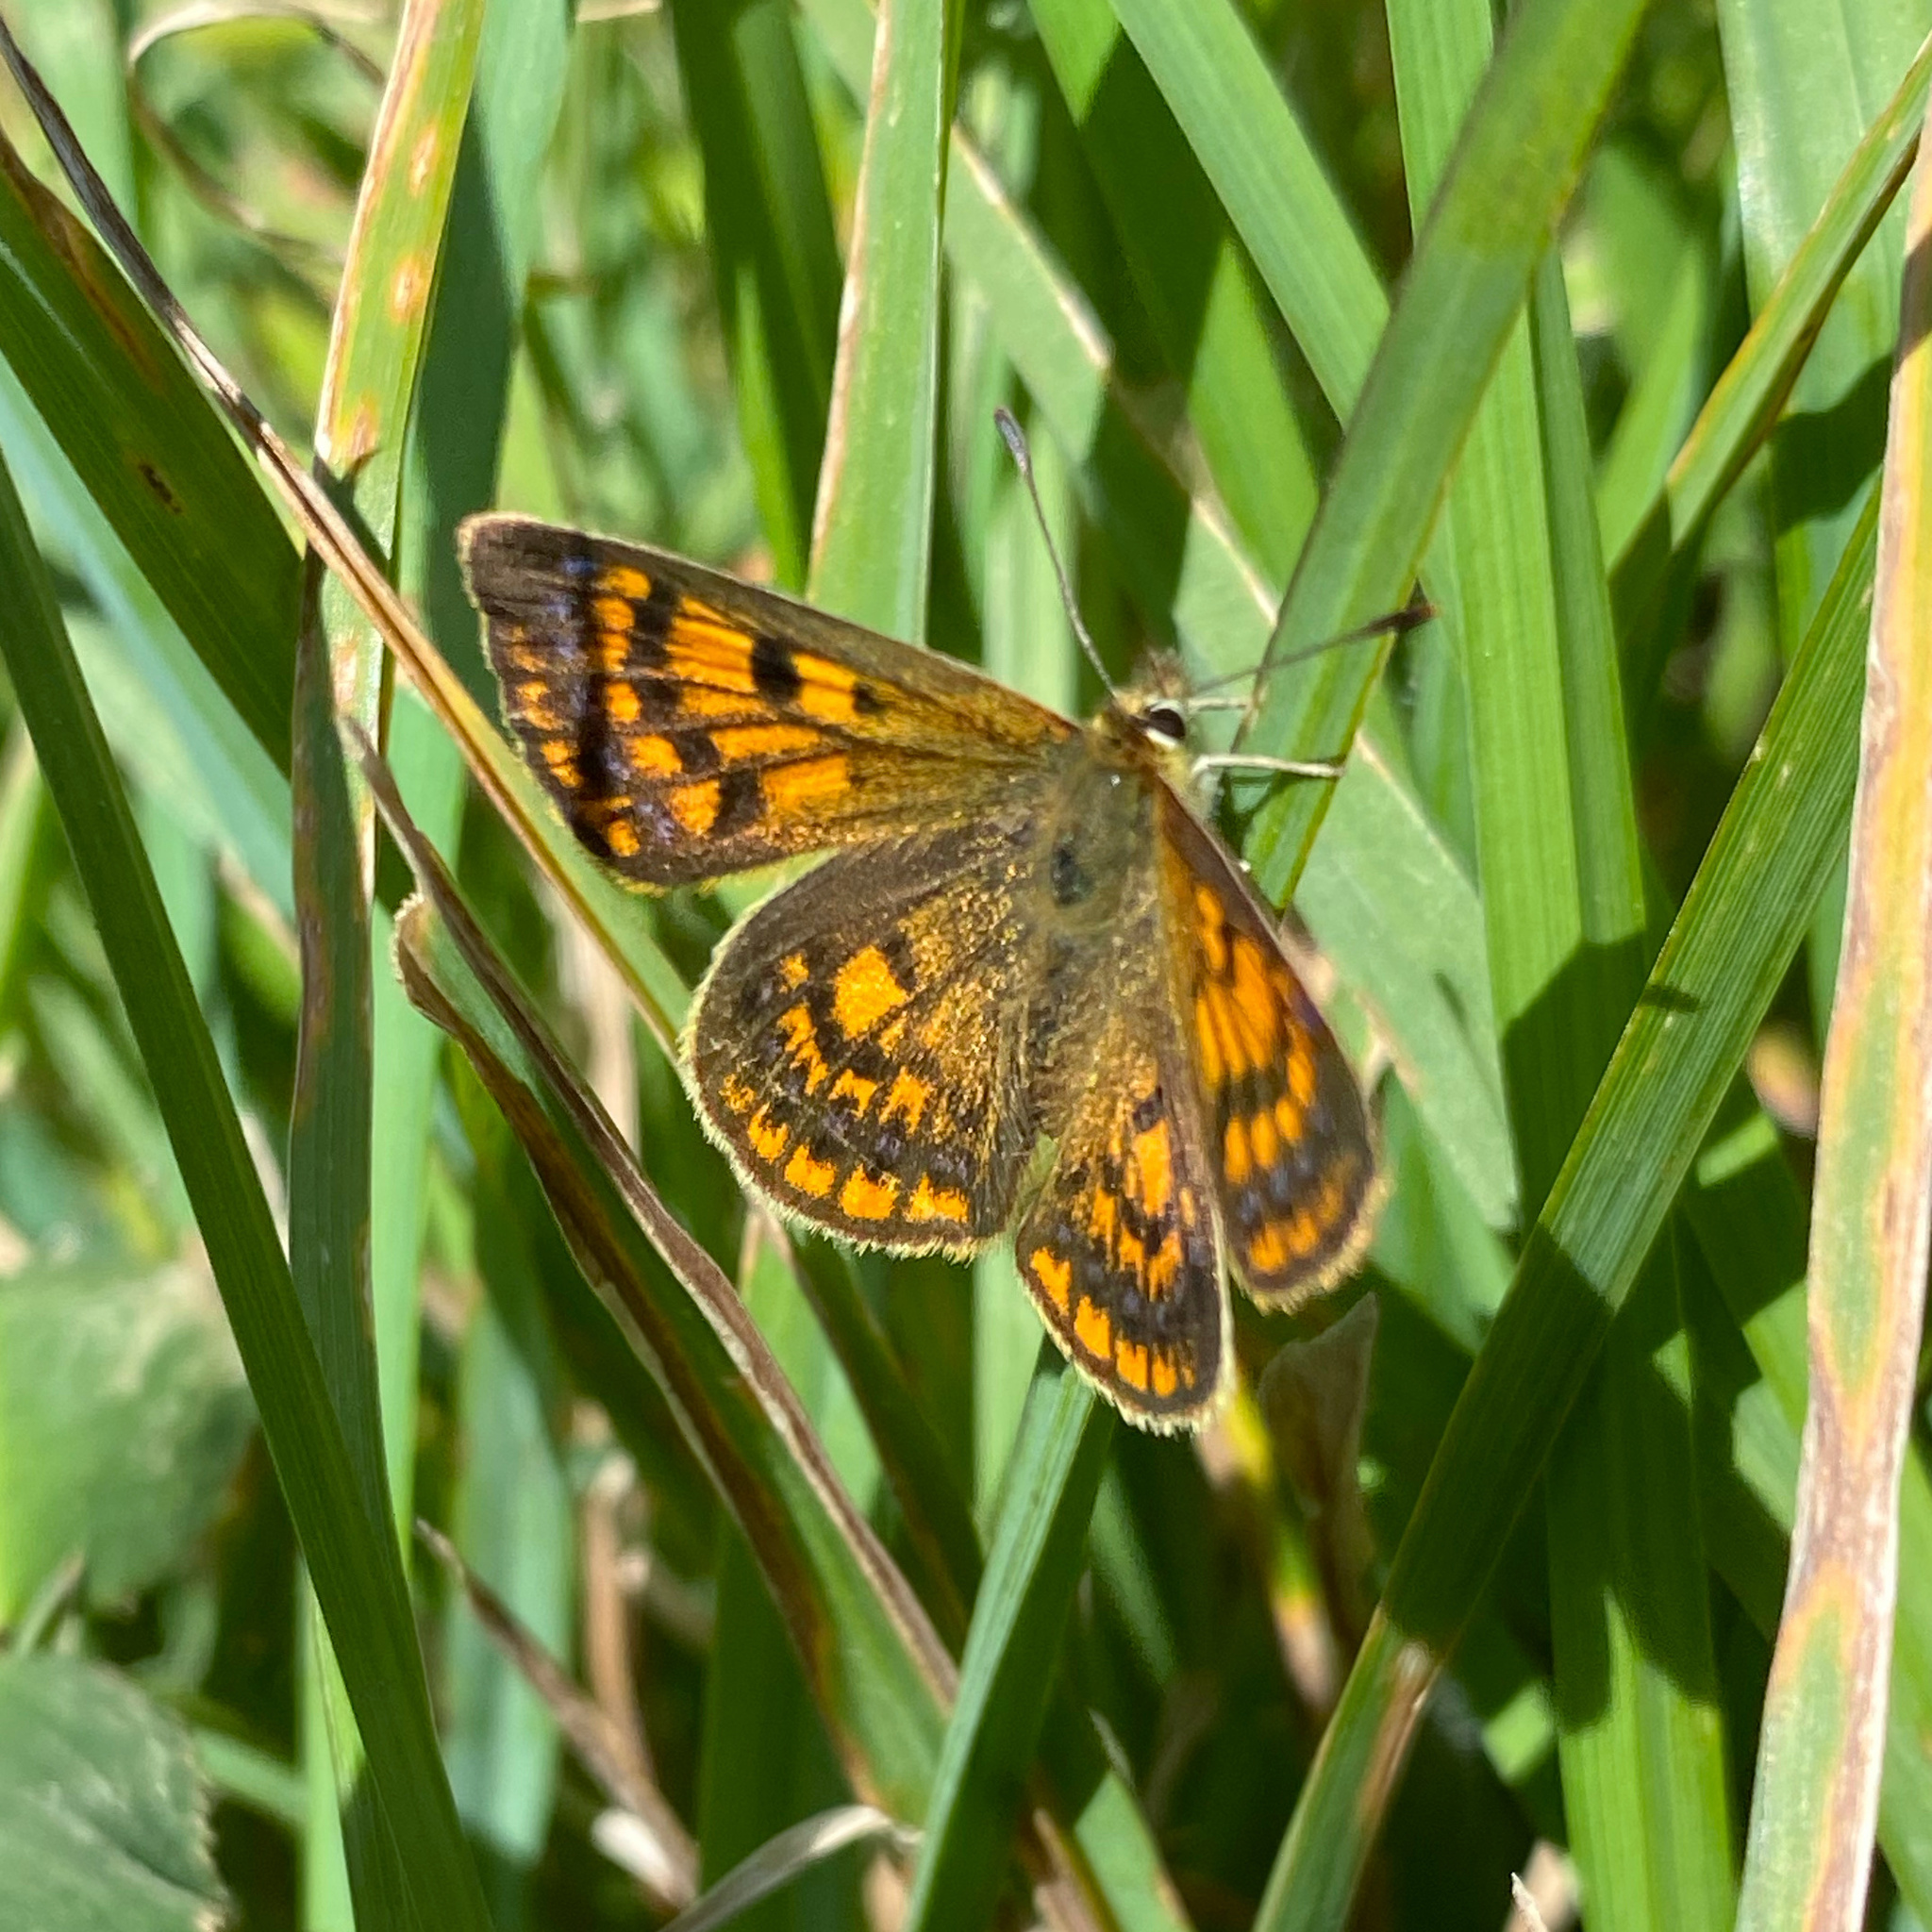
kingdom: Animalia
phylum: Arthropoda
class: Insecta
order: Lepidoptera
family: Lycaenidae
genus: Lycaena
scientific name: Lycaena
